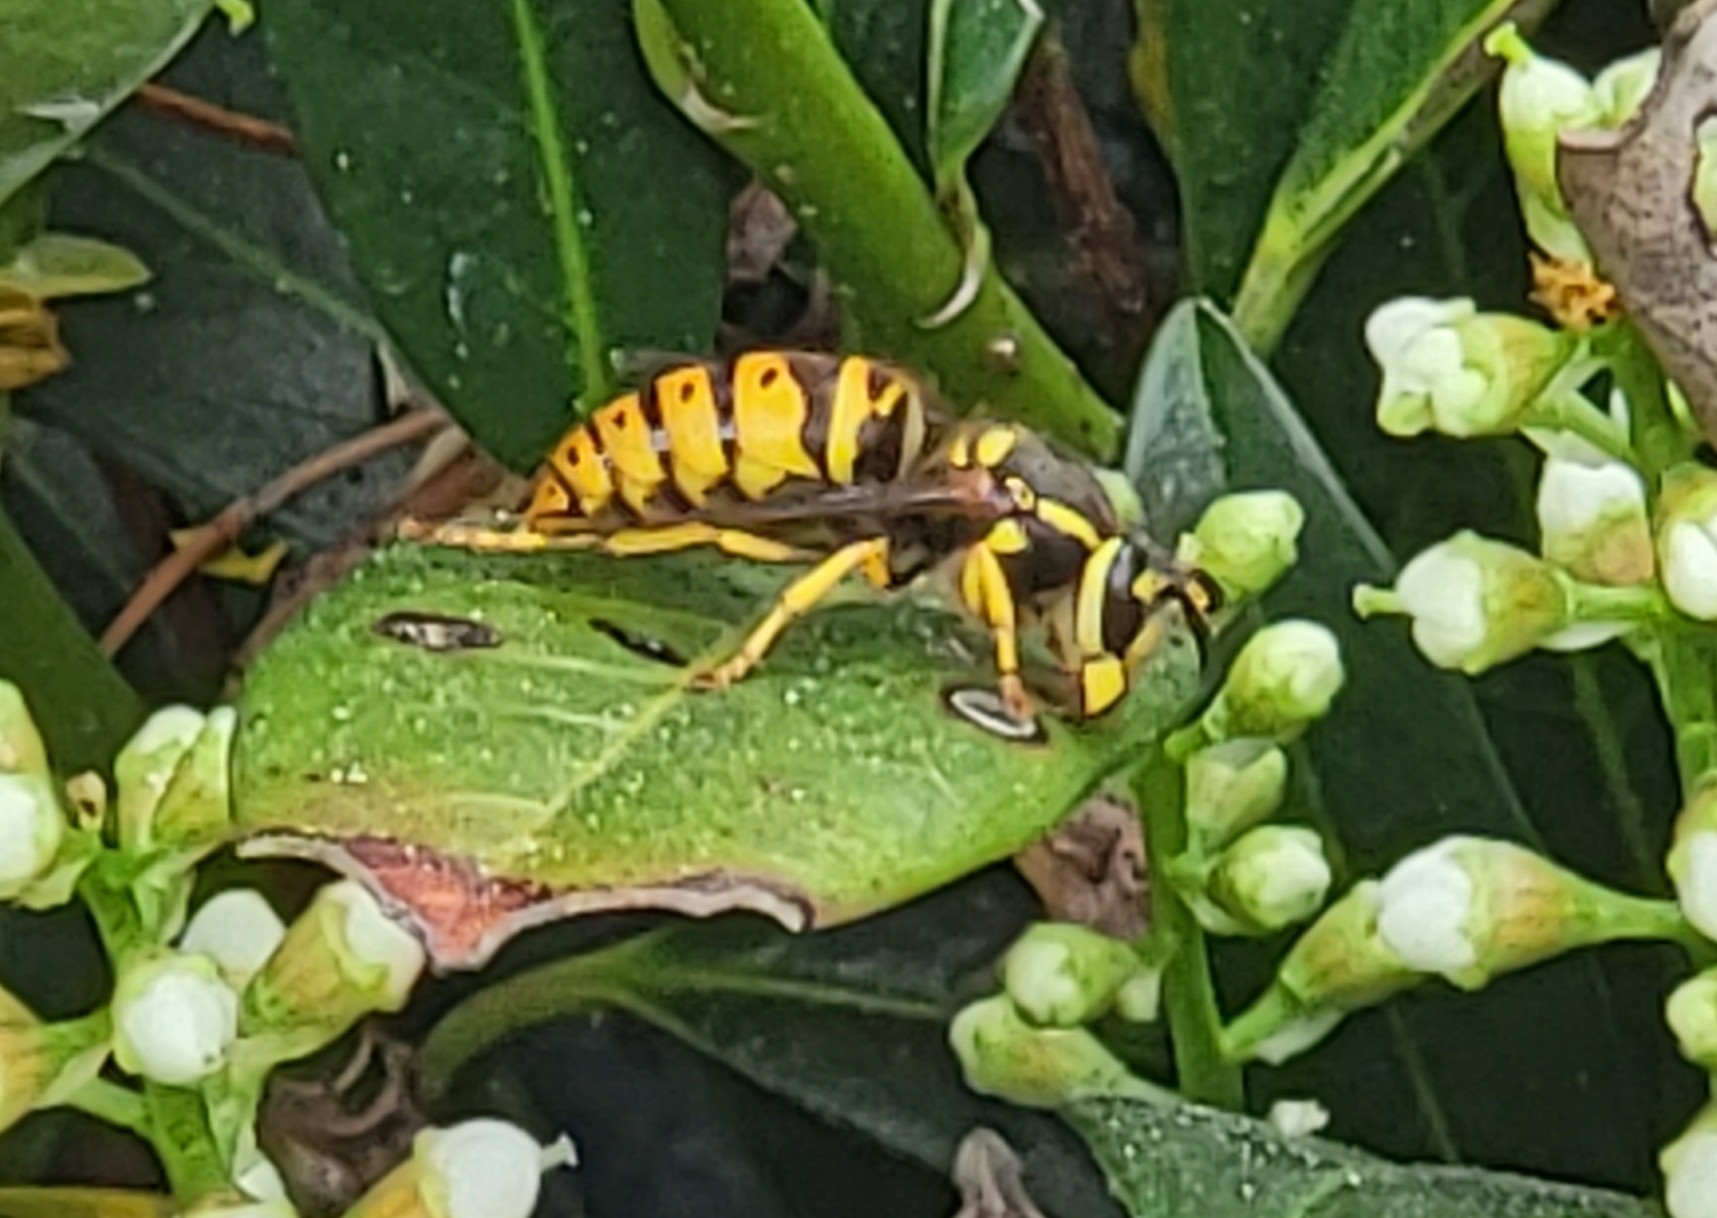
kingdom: Animalia
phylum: Arthropoda
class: Insecta
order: Hymenoptera
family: Vespidae
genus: Vespula
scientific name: Vespula maculifrons
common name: Eastern yellowjacket
